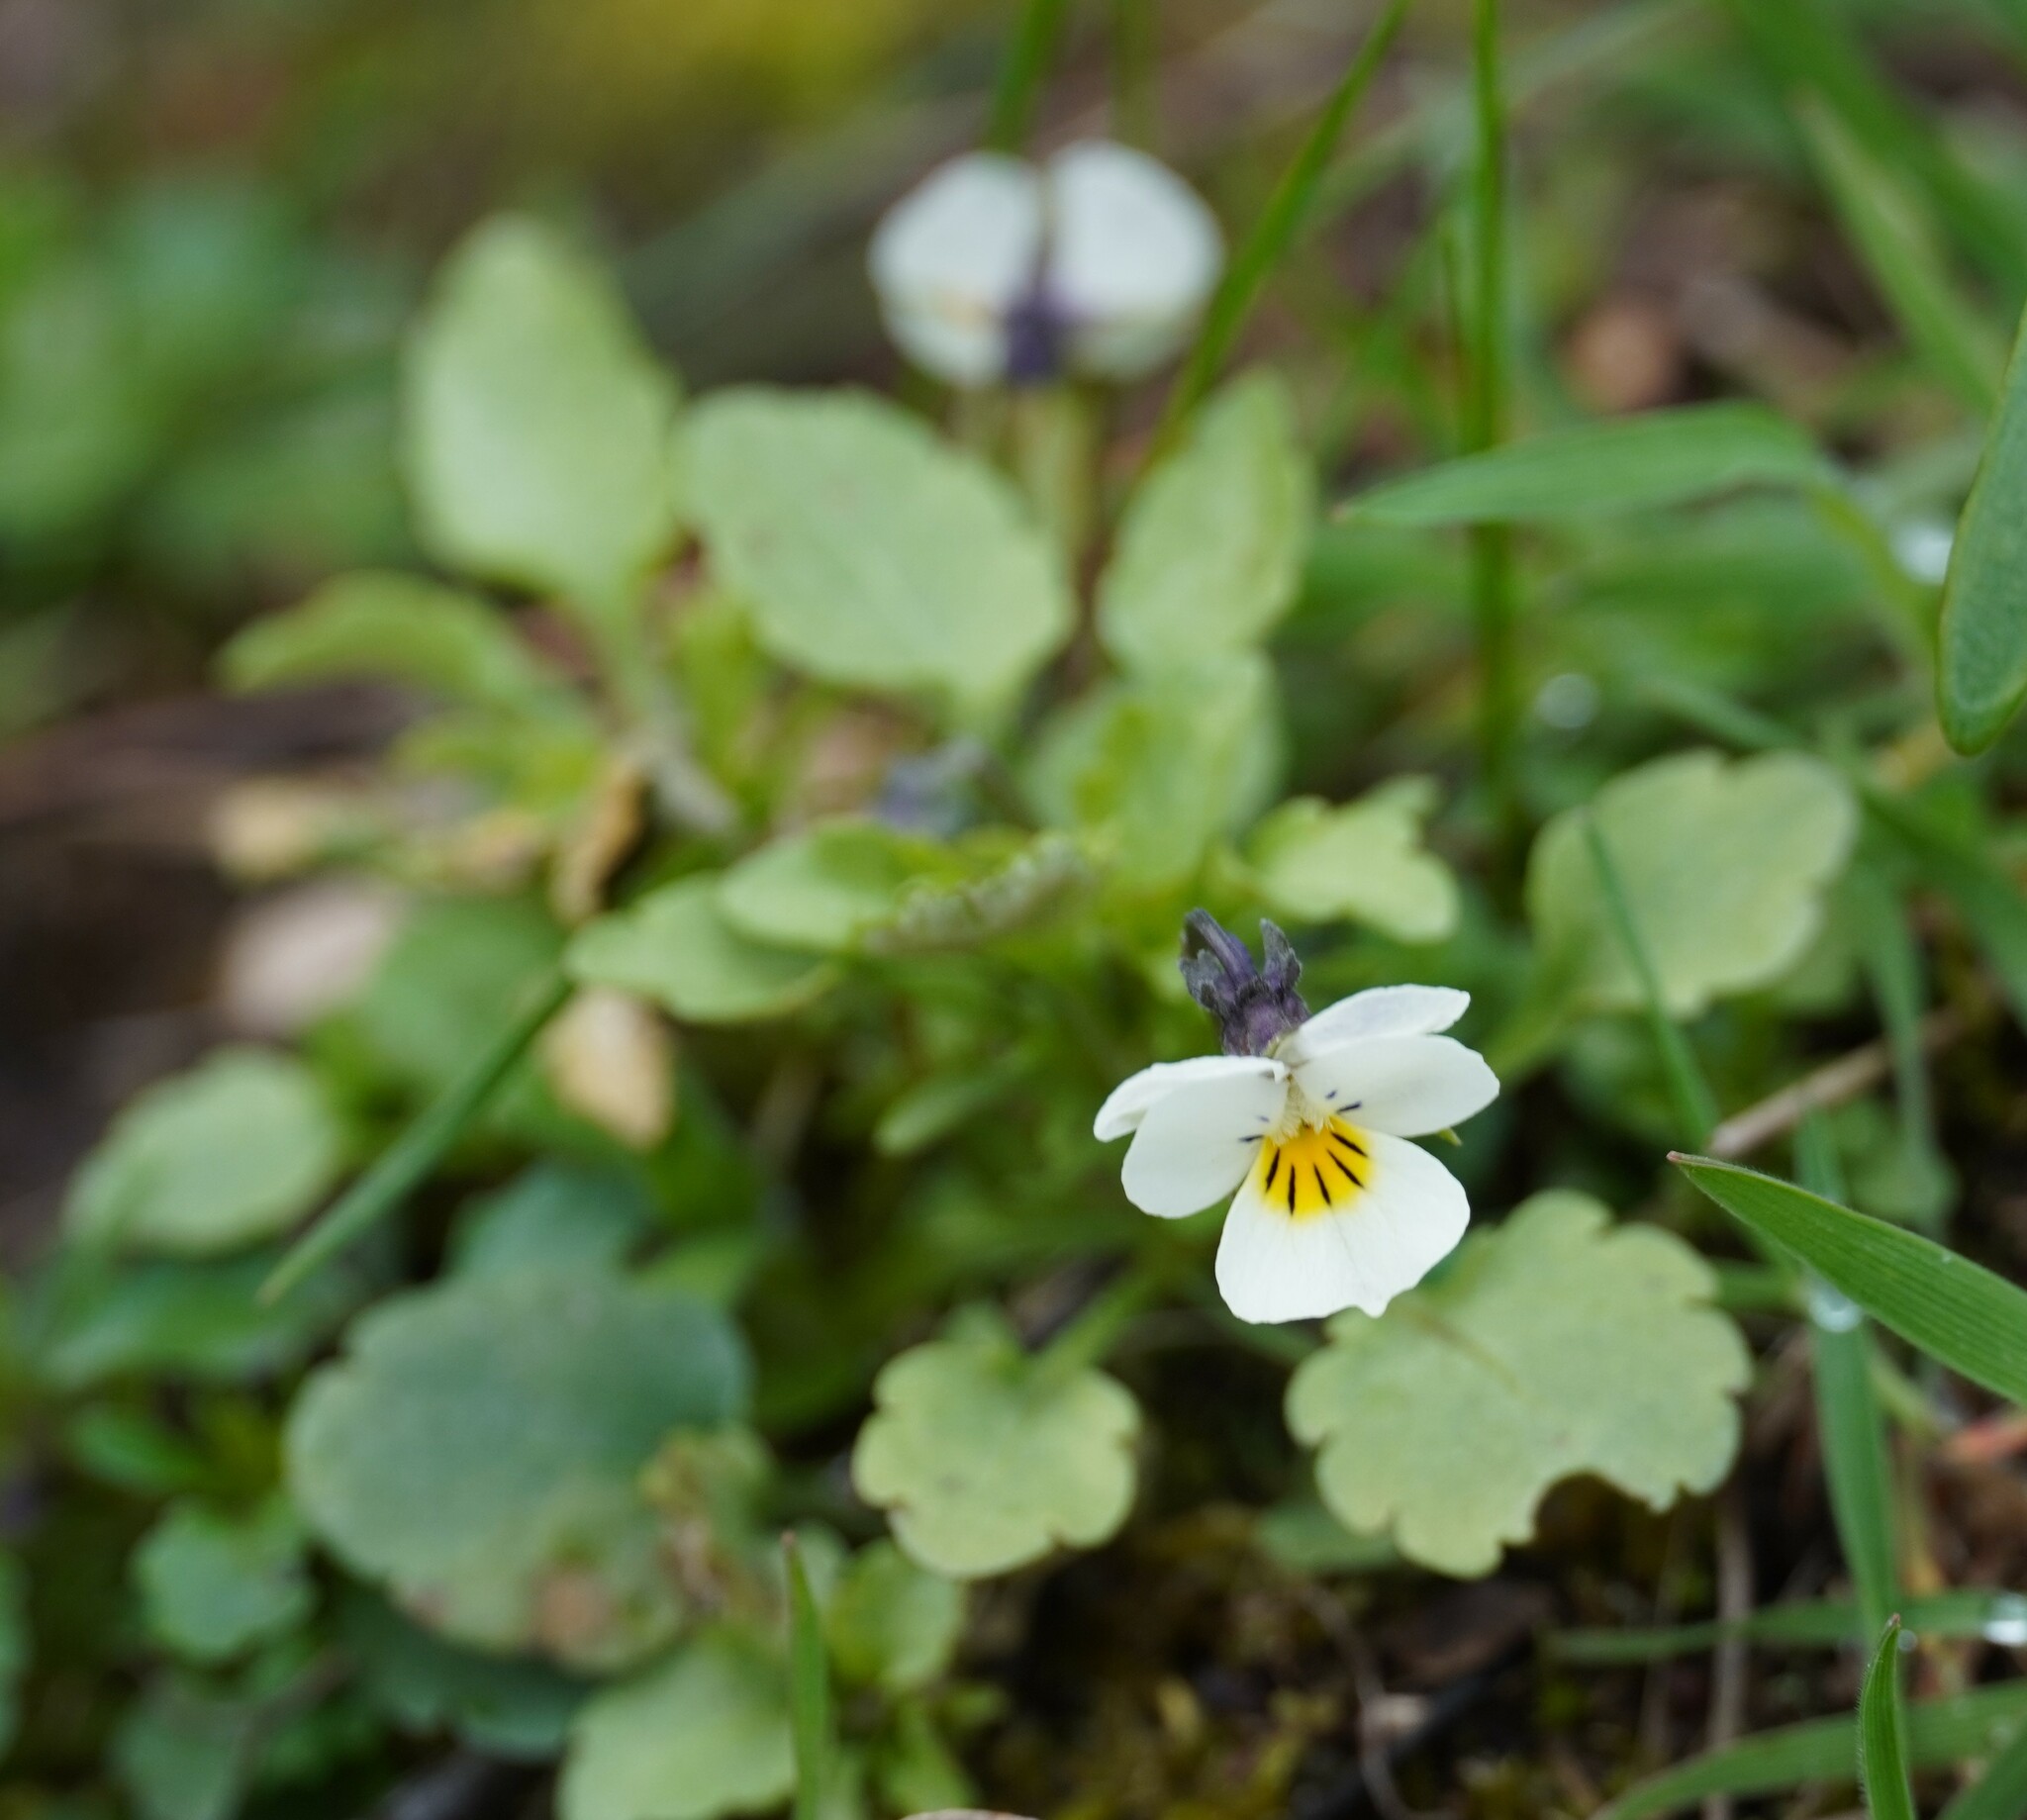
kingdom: Plantae
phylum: Tracheophyta
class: Magnoliopsida
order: Malpighiales
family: Violaceae
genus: Viola
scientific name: Viola arvensis
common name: Field pansy
